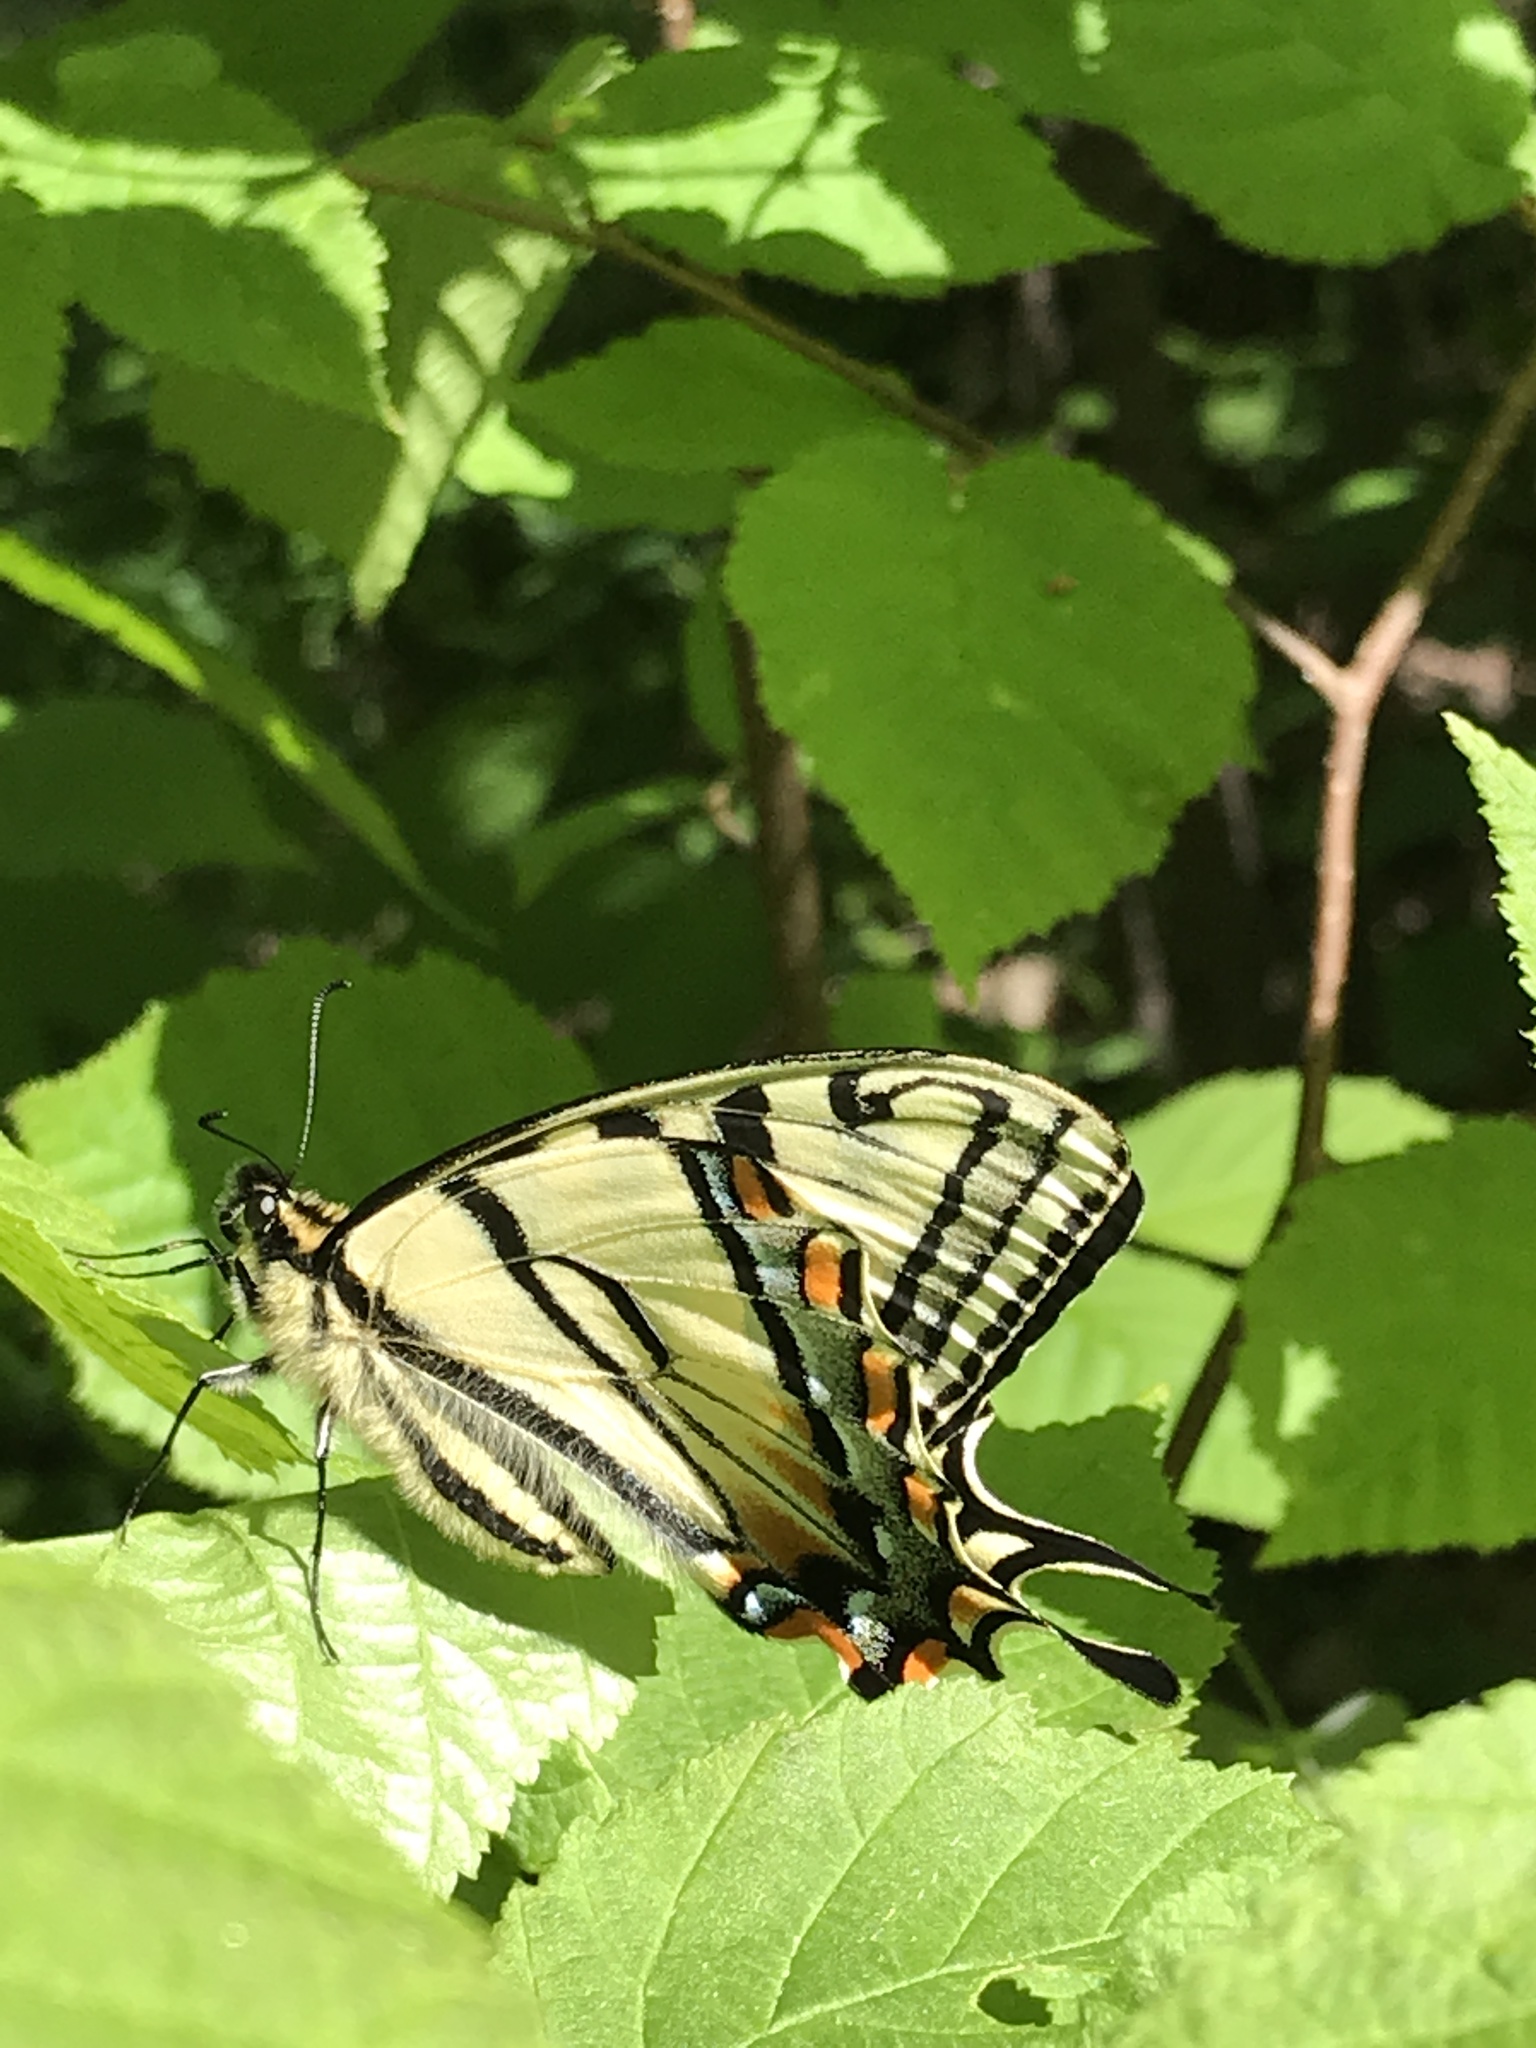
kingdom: Animalia
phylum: Arthropoda
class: Insecta
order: Lepidoptera
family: Papilionidae
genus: Papilio
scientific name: Papilio canadensis
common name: Canadian tiger swallowtail
